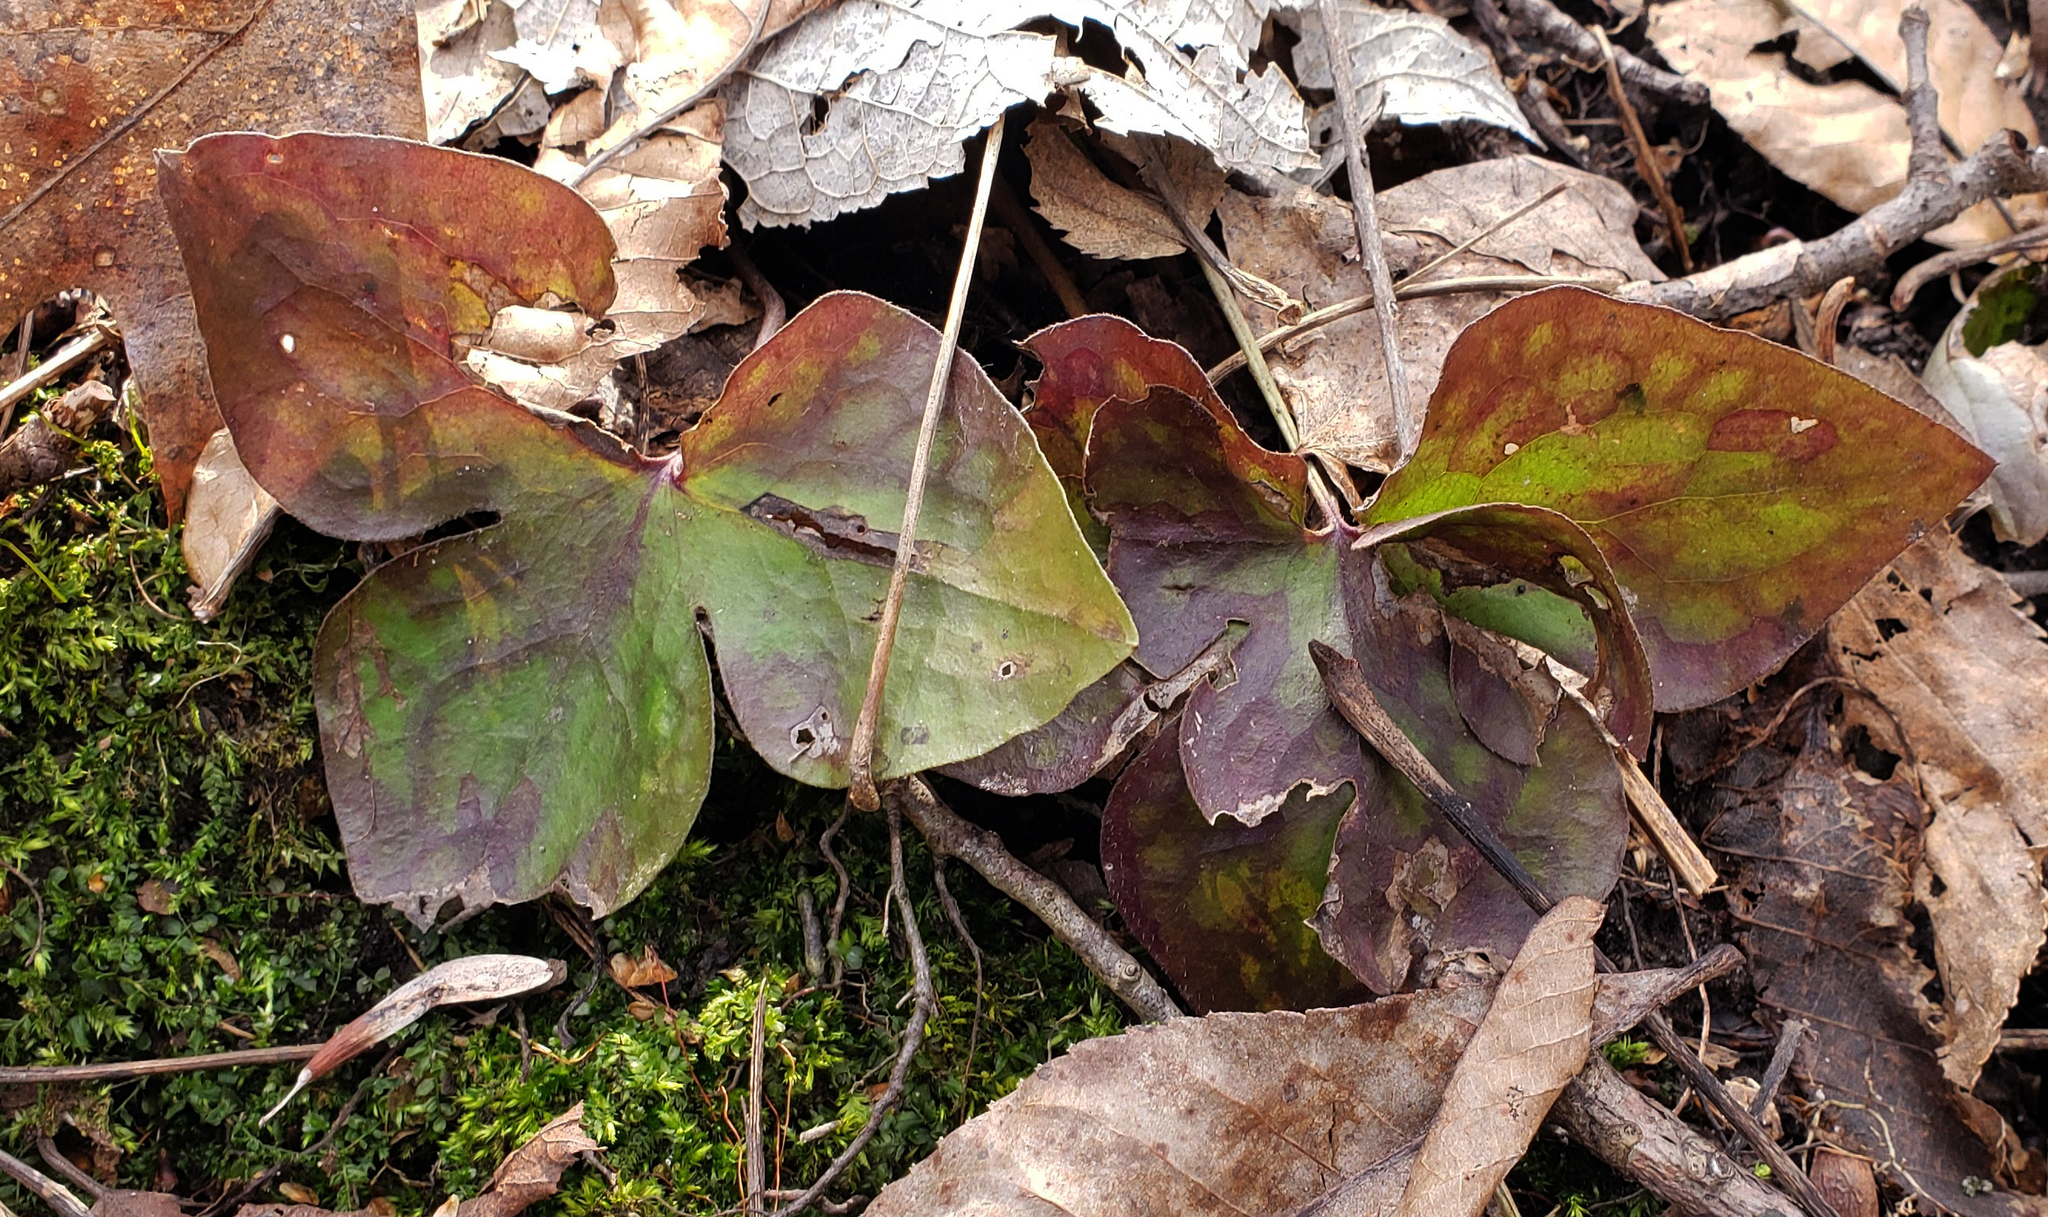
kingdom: Plantae
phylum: Tracheophyta
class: Magnoliopsida
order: Ranunculales
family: Ranunculaceae
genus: Hepatica
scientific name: Hepatica acutiloba
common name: Sharp-lobed hepatica
